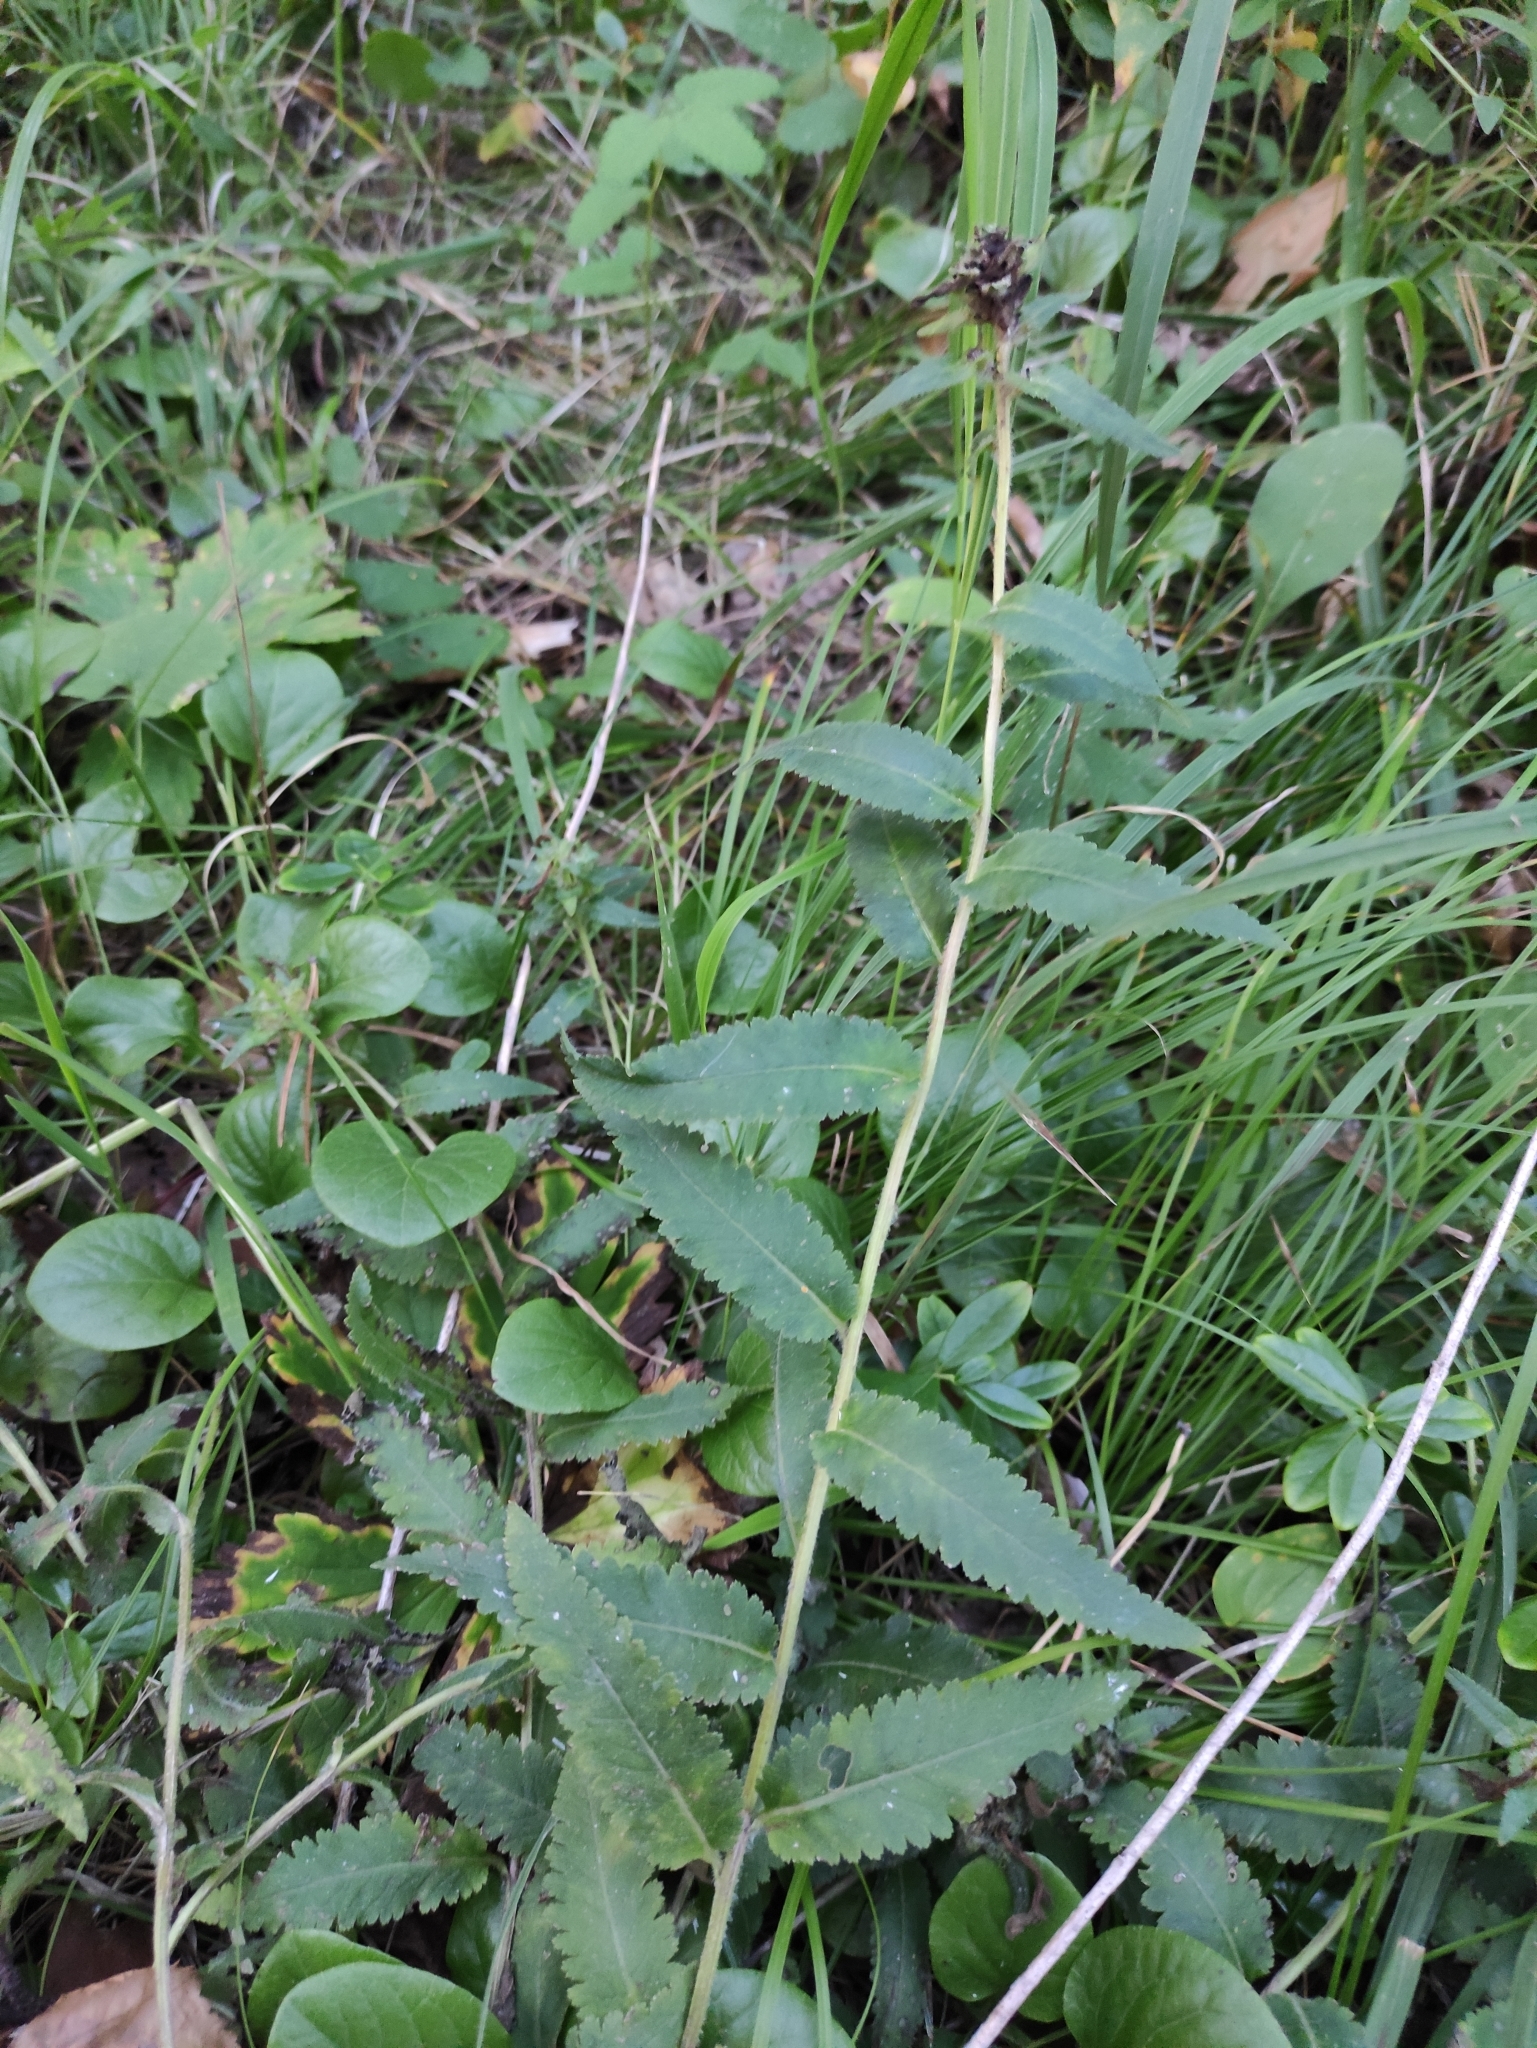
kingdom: Plantae
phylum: Tracheophyta
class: Magnoliopsida
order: Lamiales
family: Orobanchaceae
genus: Pedicularis
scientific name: Pedicularis resupinata
